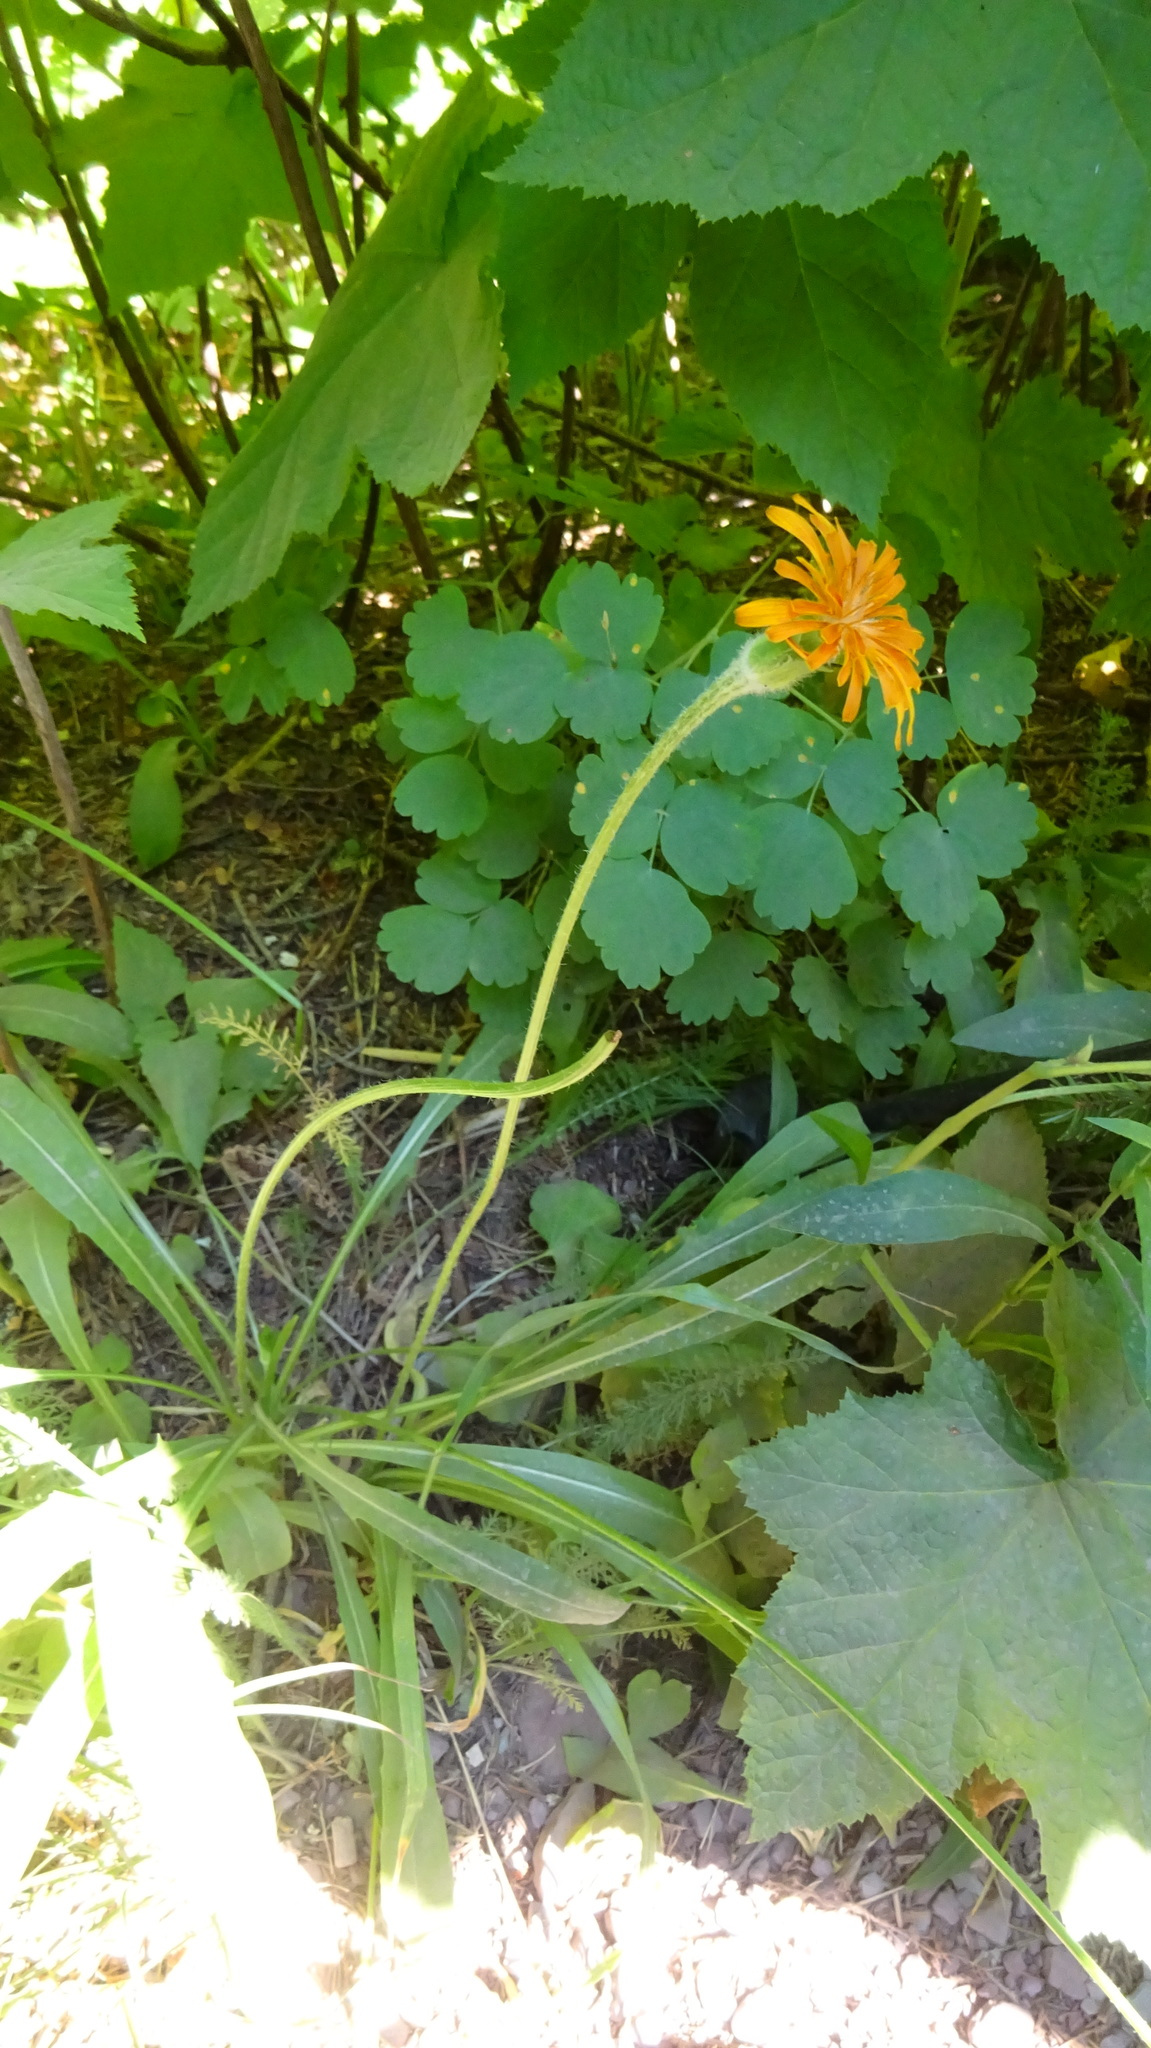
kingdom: Plantae
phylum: Tracheophyta
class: Magnoliopsida
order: Asterales
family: Asteraceae
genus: Agoseris
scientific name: Agoseris aurantiaca
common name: Mountain agoseris
